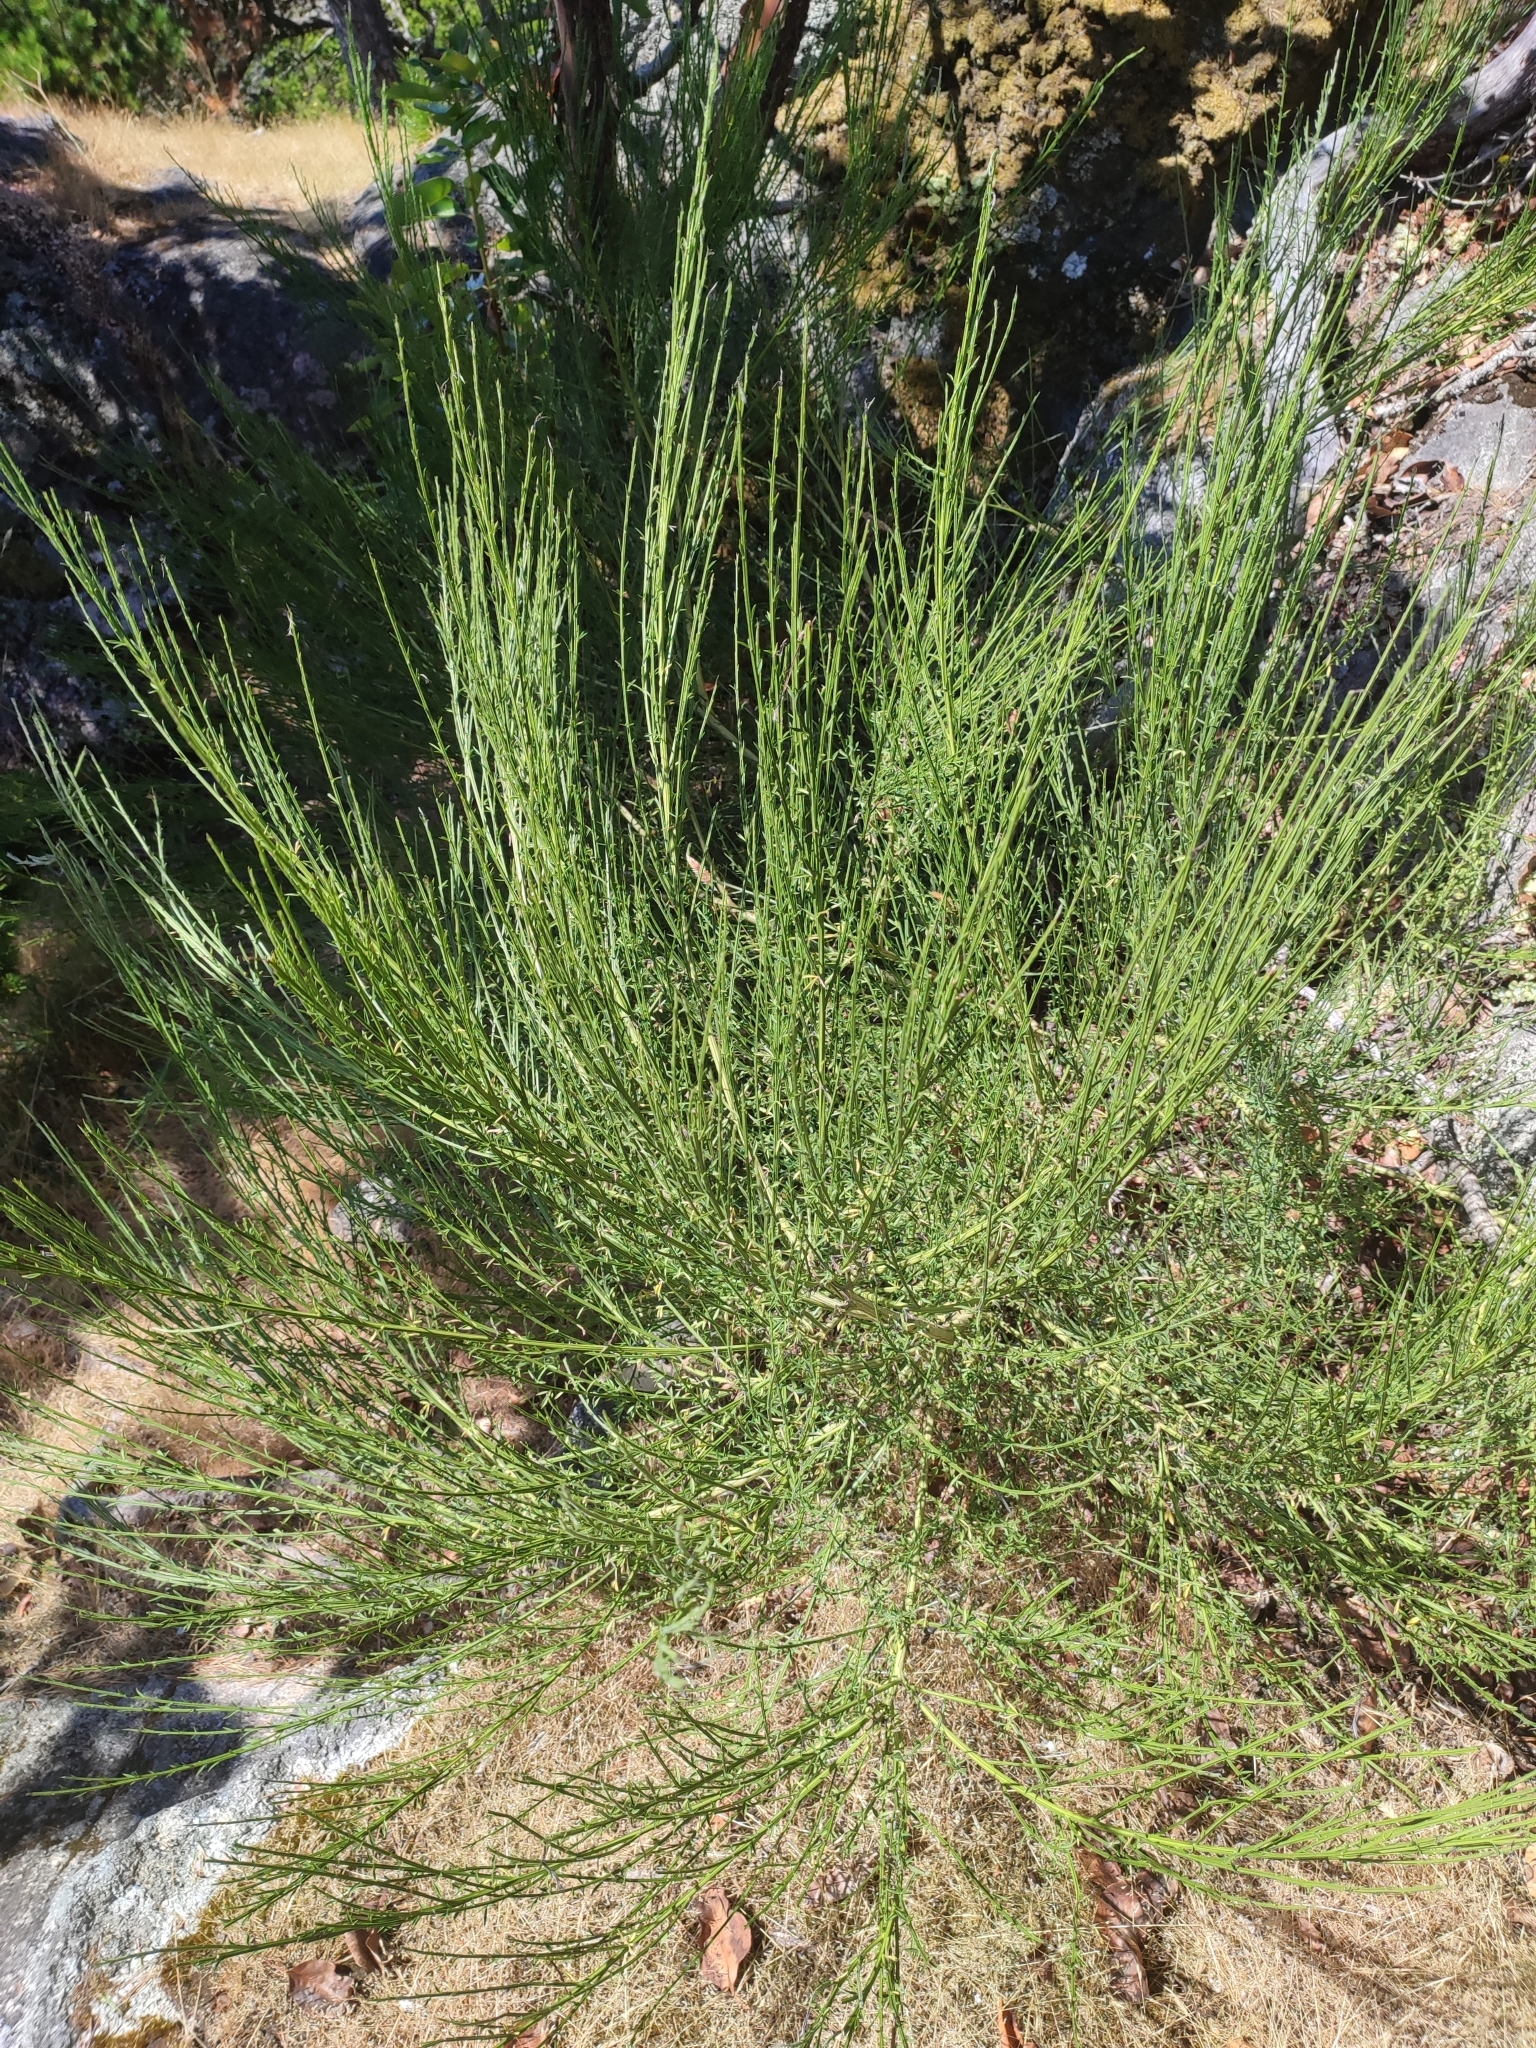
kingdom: Plantae
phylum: Tracheophyta
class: Magnoliopsida
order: Fabales
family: Fabaceae
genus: Cytisus
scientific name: Cytisus scoparius
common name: Scotch broom
